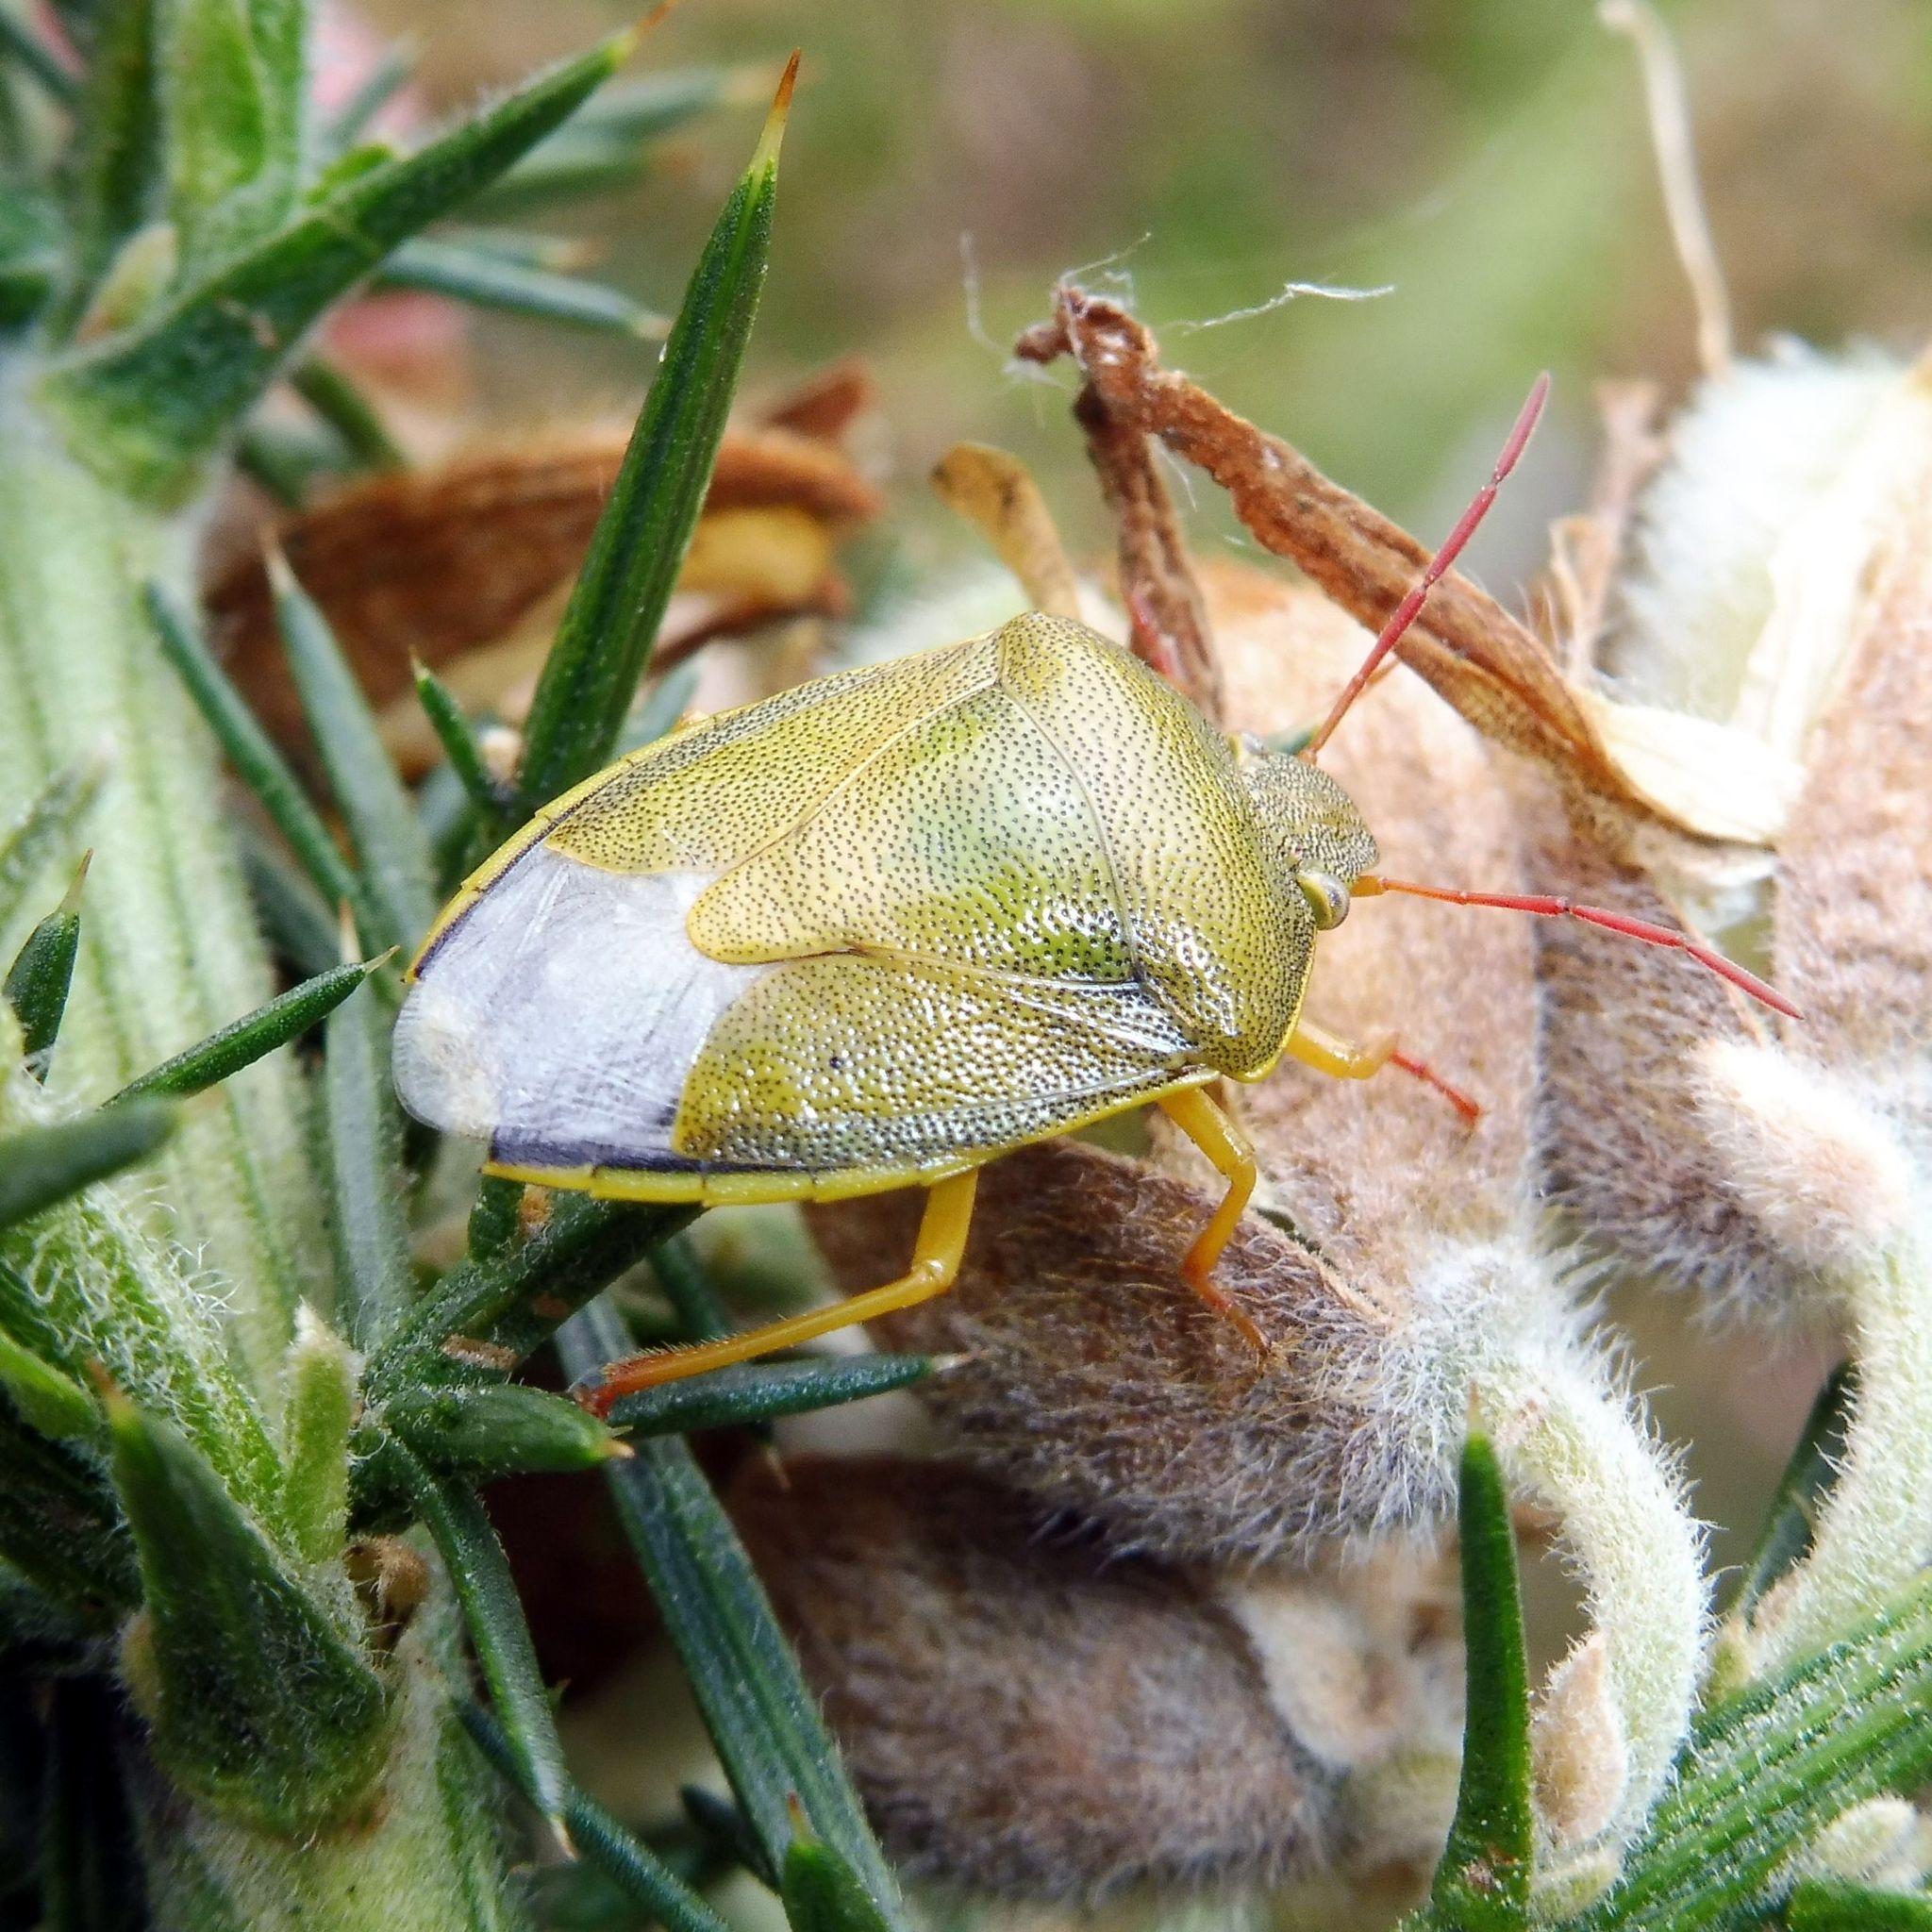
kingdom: Animalia
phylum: Arthropoda
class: Insecta
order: Hemiptera
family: Pentatomidae
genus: Piezodorus
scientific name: Piezodorus lituratus
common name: Stink bug
